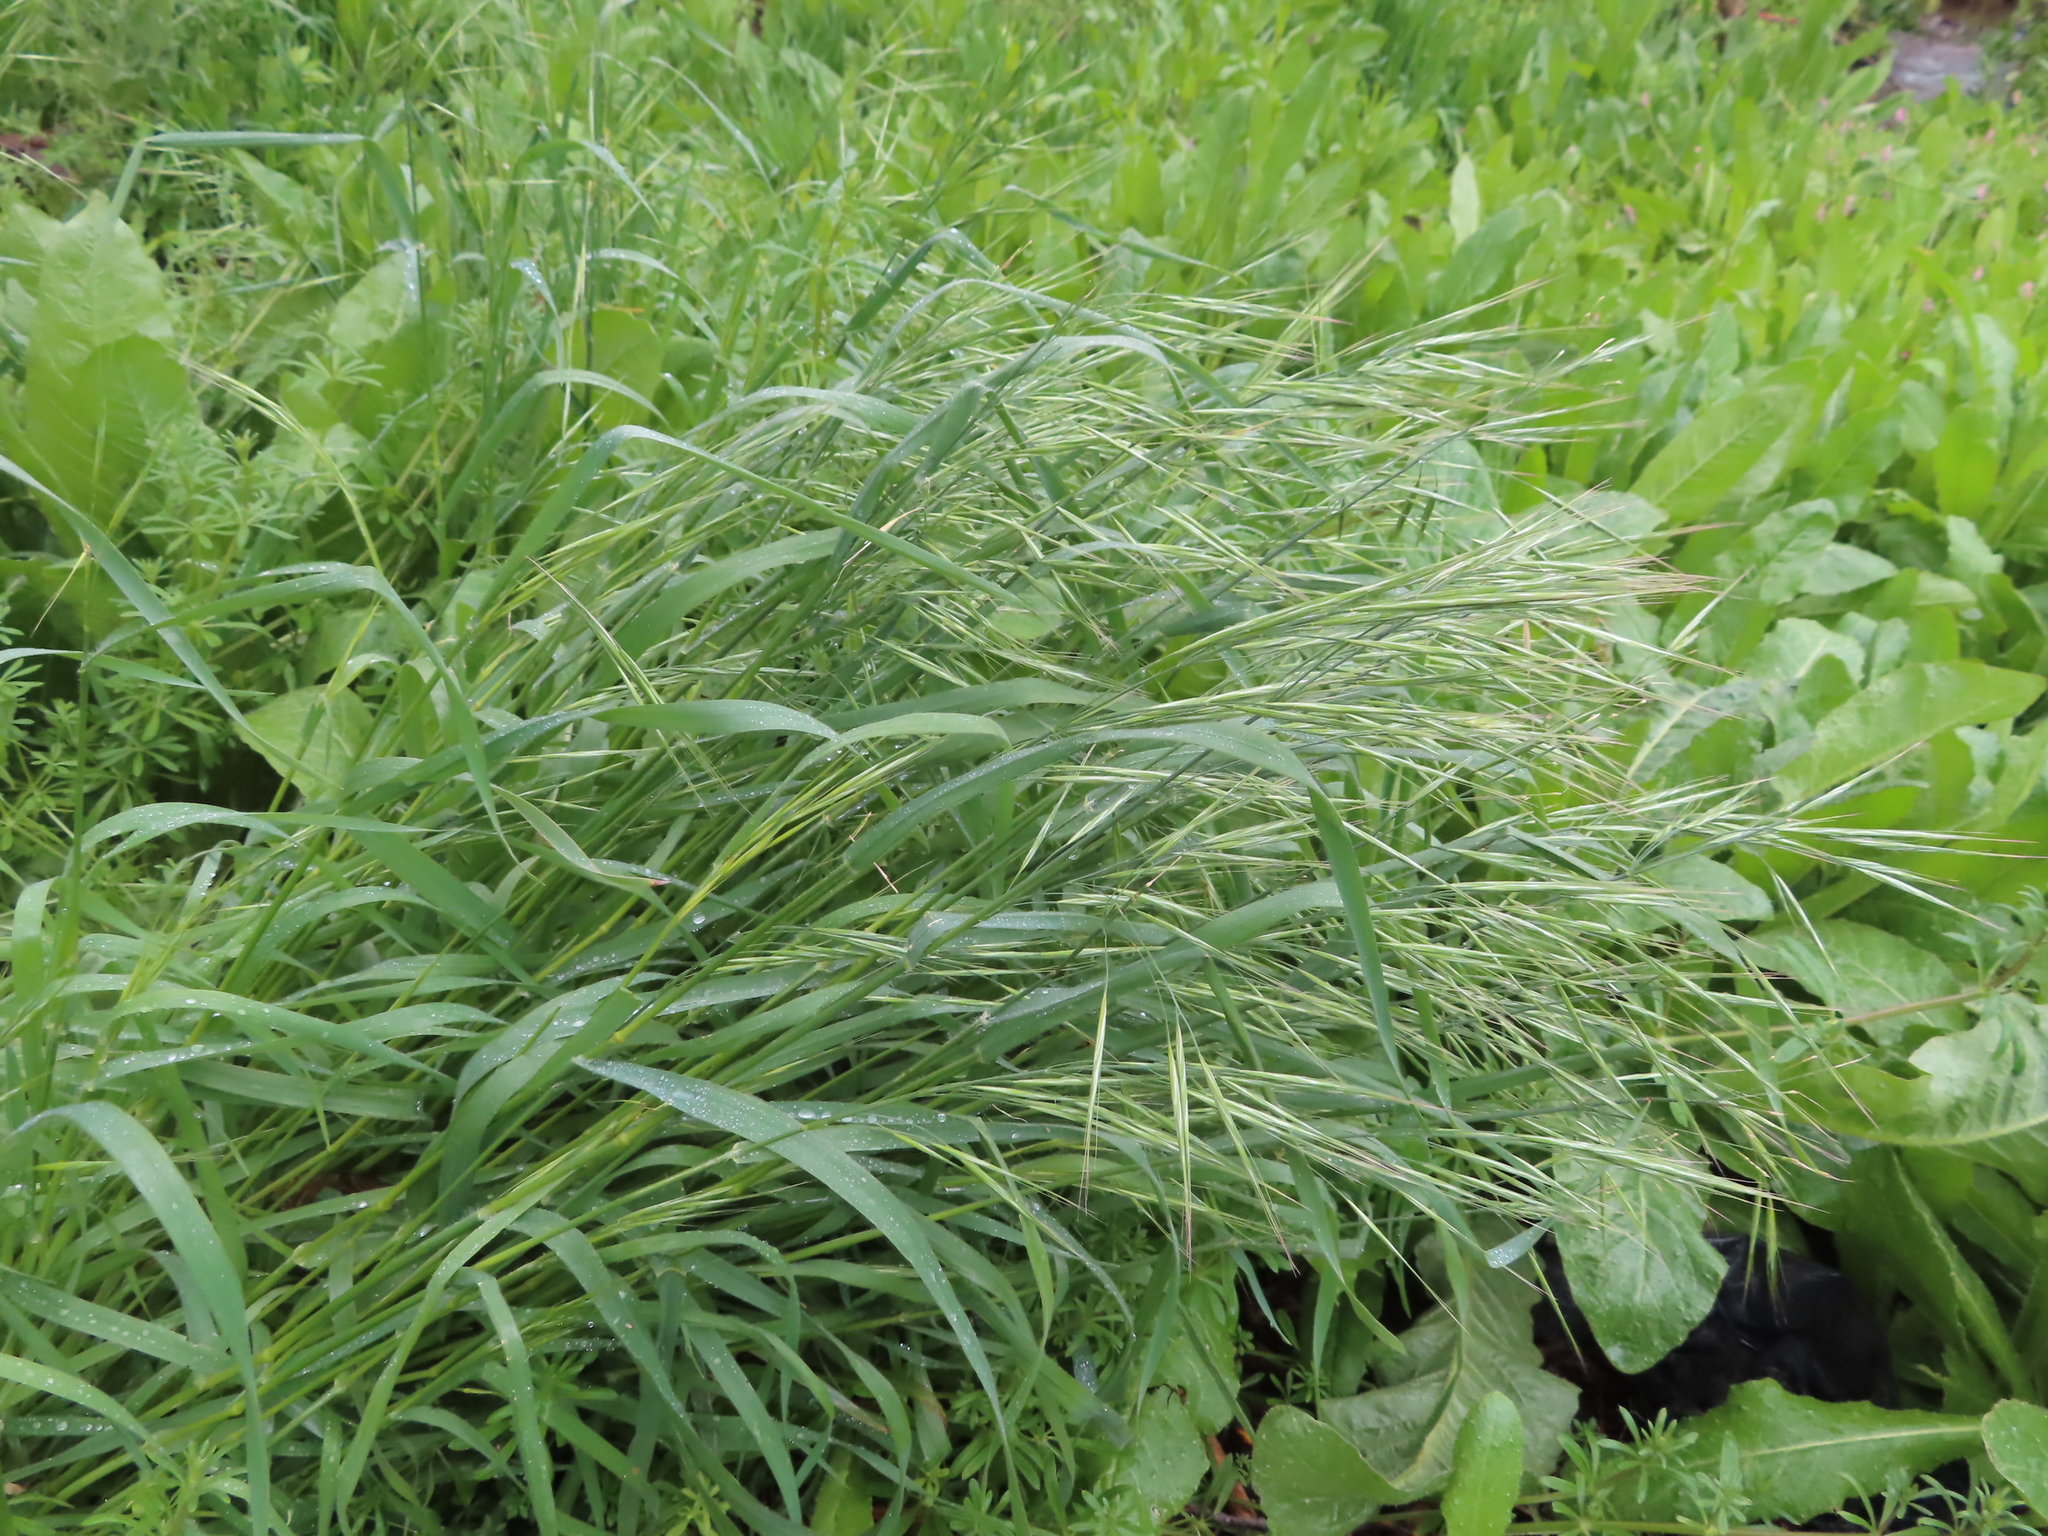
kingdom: Plantae
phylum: Tracheophyta
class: Liliopsida
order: Poales
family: Poaceae
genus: Bromus
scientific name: Bromus diandrus
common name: Ripgut brome
